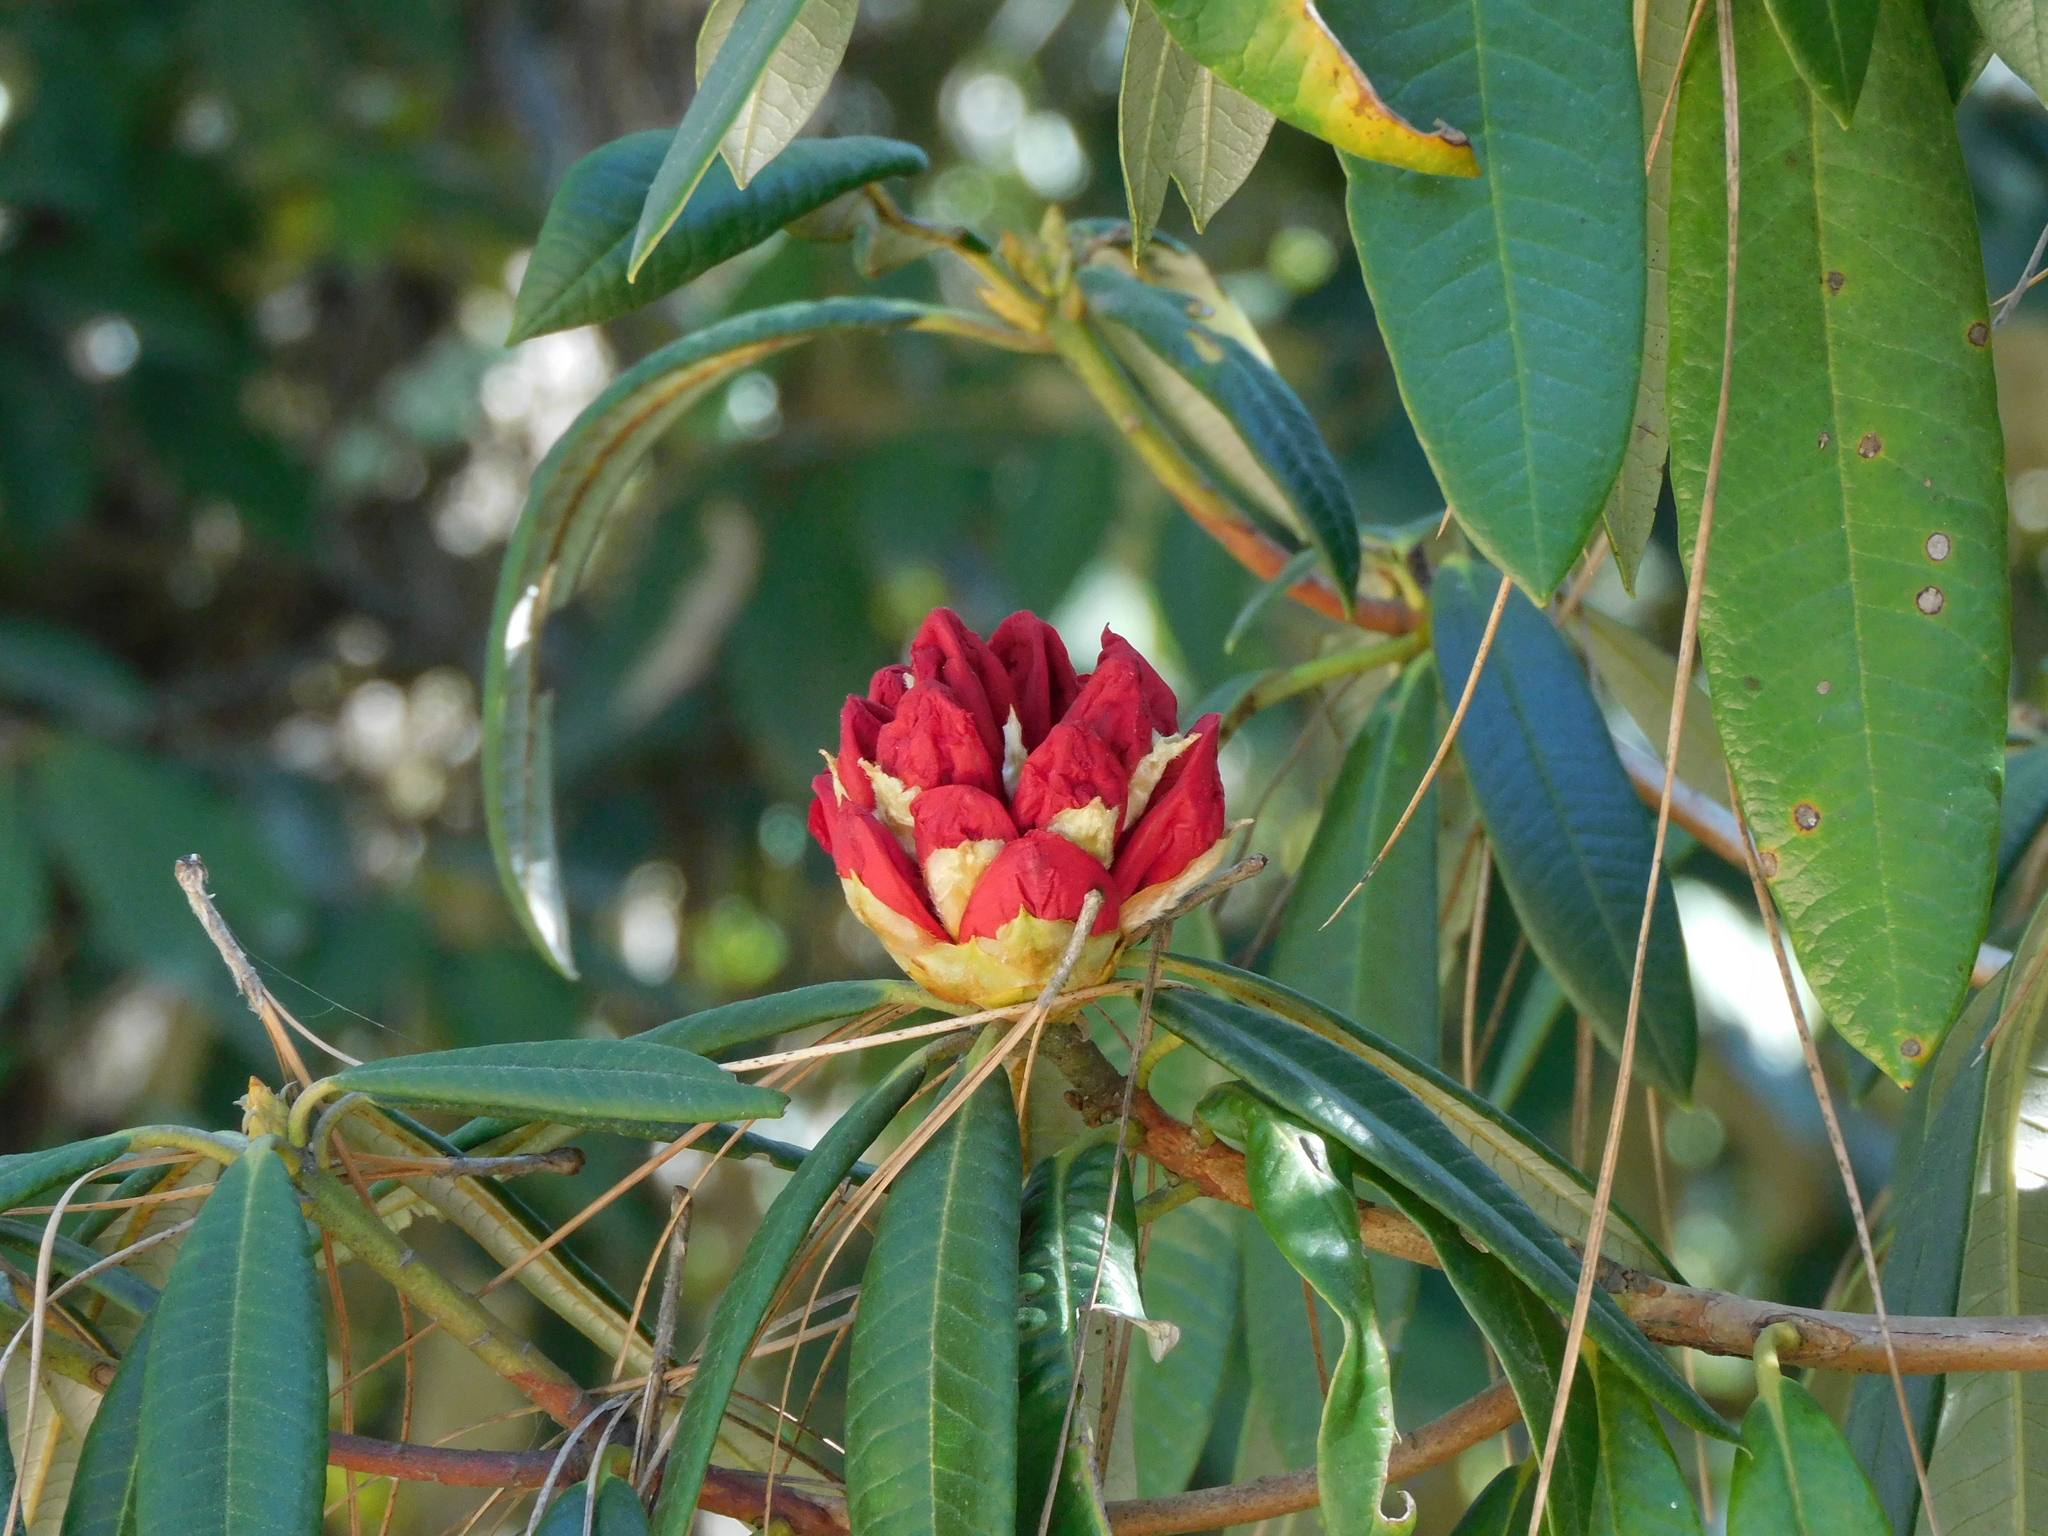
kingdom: Plantae
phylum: Tracheophyta
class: Magnoliopsida
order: Ericales
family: Ericaceae
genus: Rhododendron
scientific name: Rhododendron arboreum
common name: Tree rhododendron
